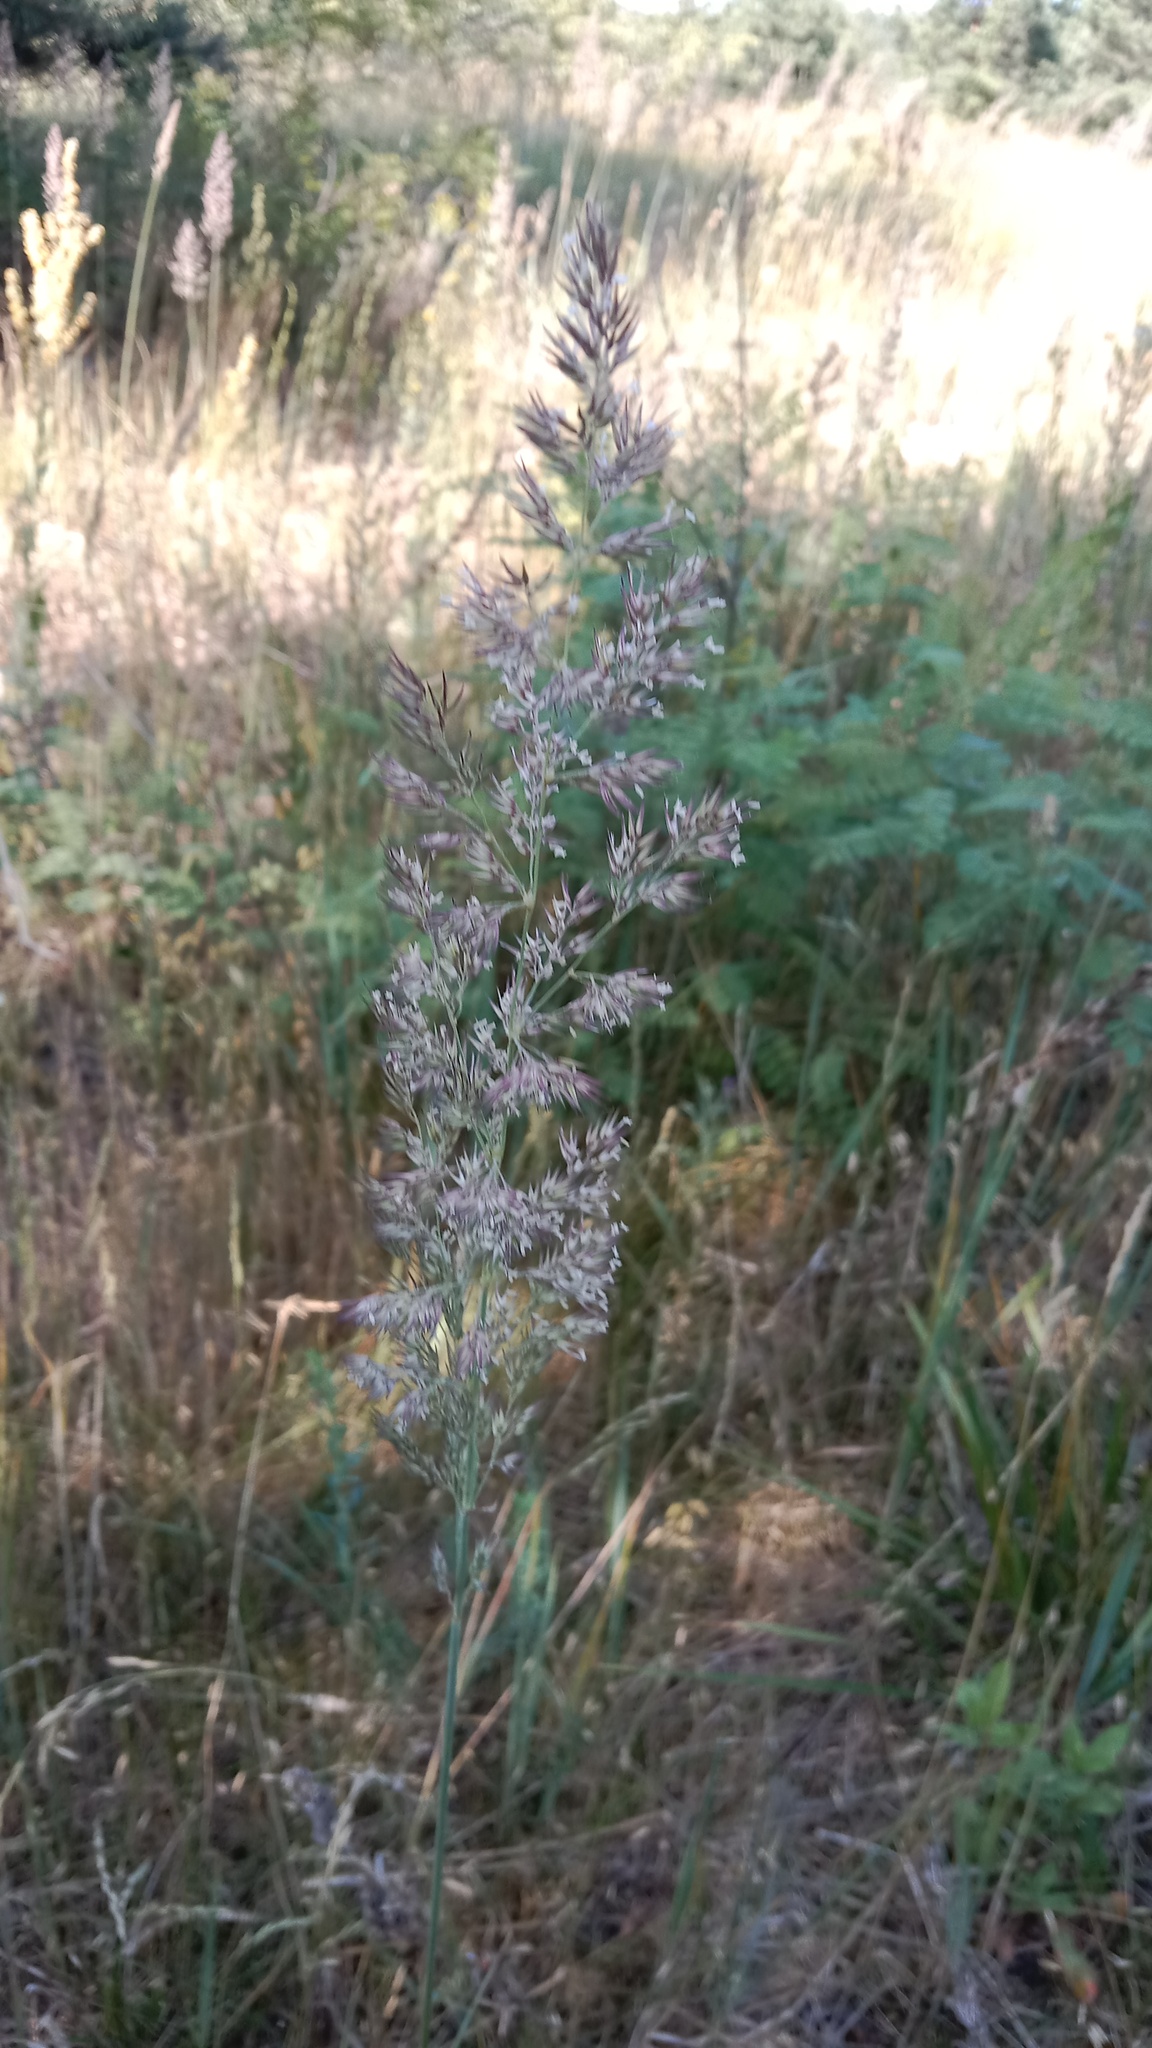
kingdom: Plantae
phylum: Tracheophyta
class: Liliopsida
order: Poales
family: Poaceae
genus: Calamagrostis
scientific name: Calamagrostis epigejos
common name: Wood small-reed
